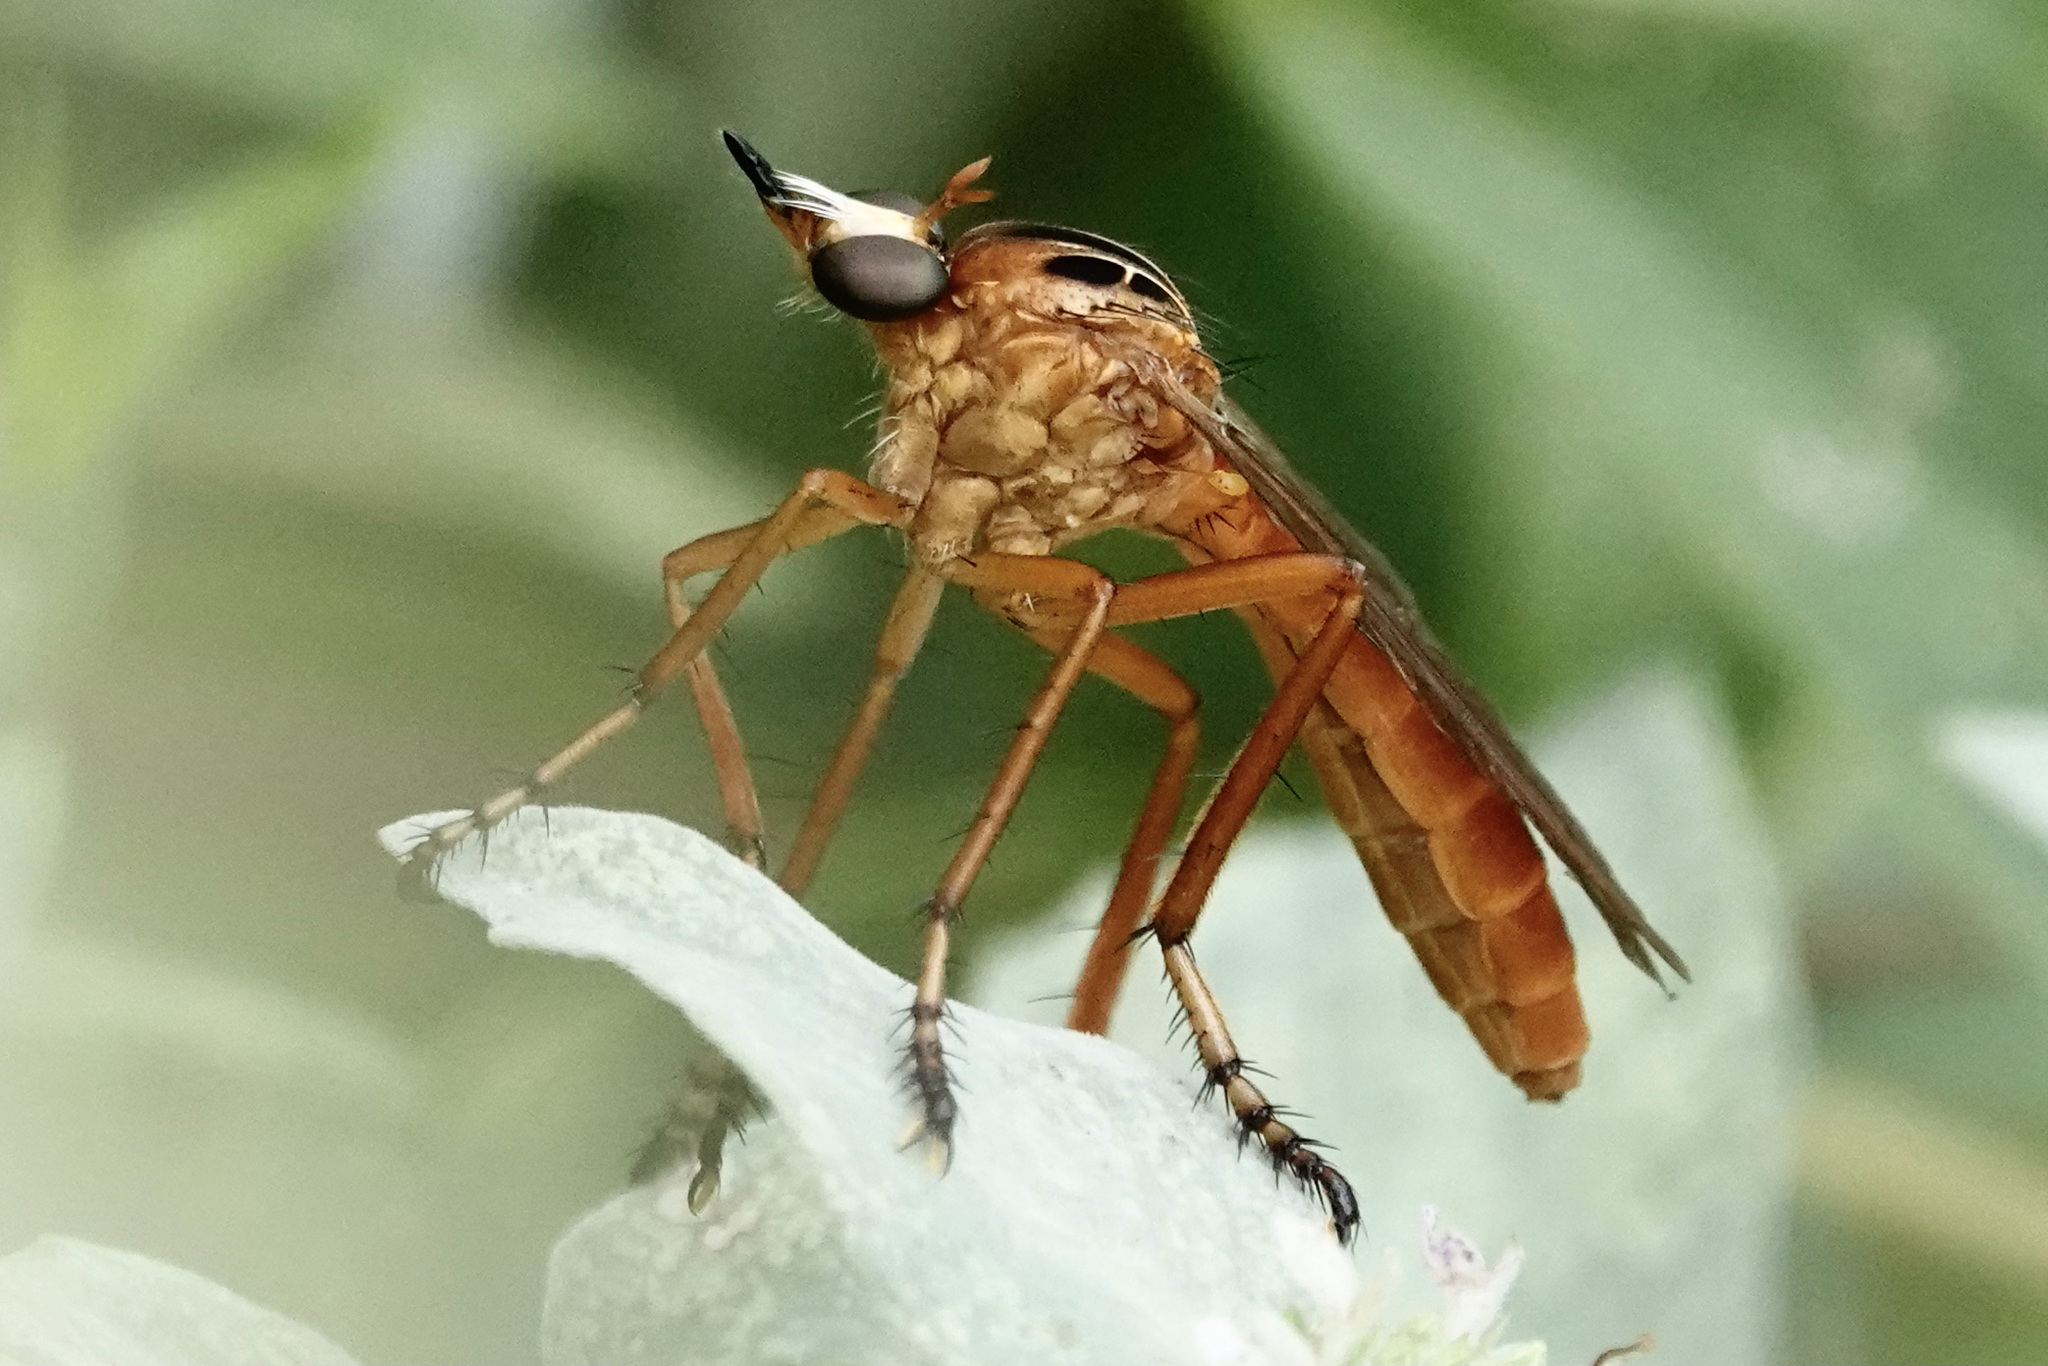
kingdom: Animalia
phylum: Arthropoda
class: Insecta
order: Diptera
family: Asilidae
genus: Diogmites
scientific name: Diogmites neoternatus
